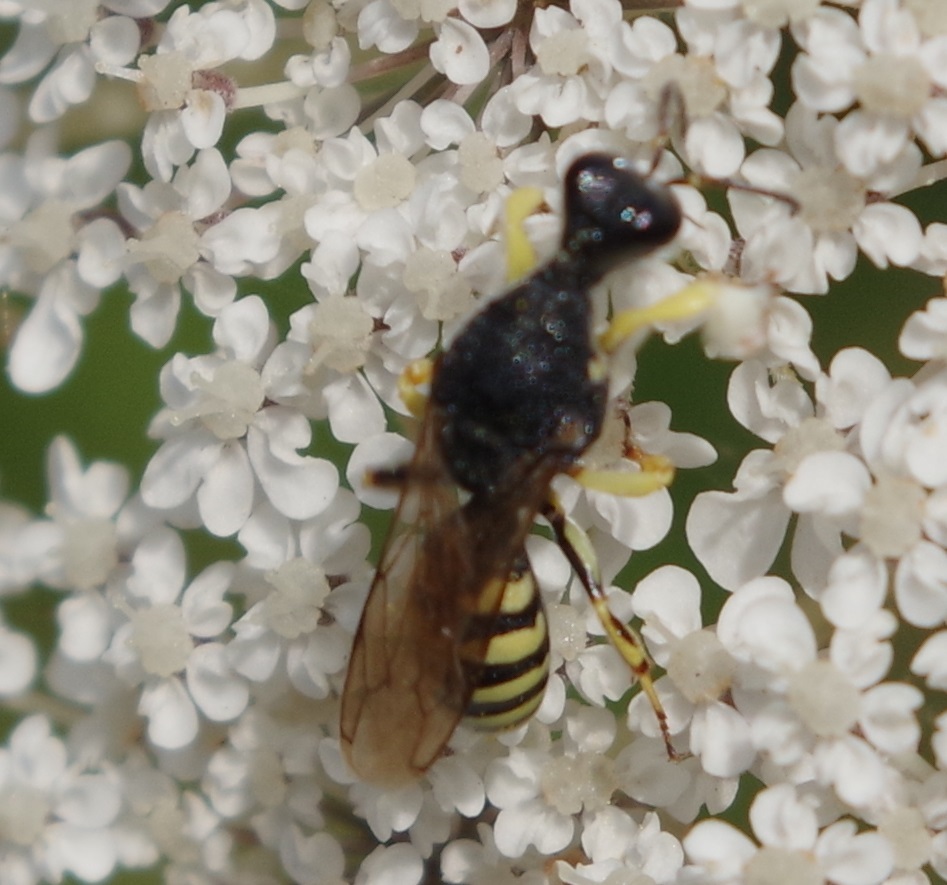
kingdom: Animalia
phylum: Arthropoda
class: Insecta
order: Hymenoptera
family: Crabronidae
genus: Lestica
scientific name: Lestica clypeata
